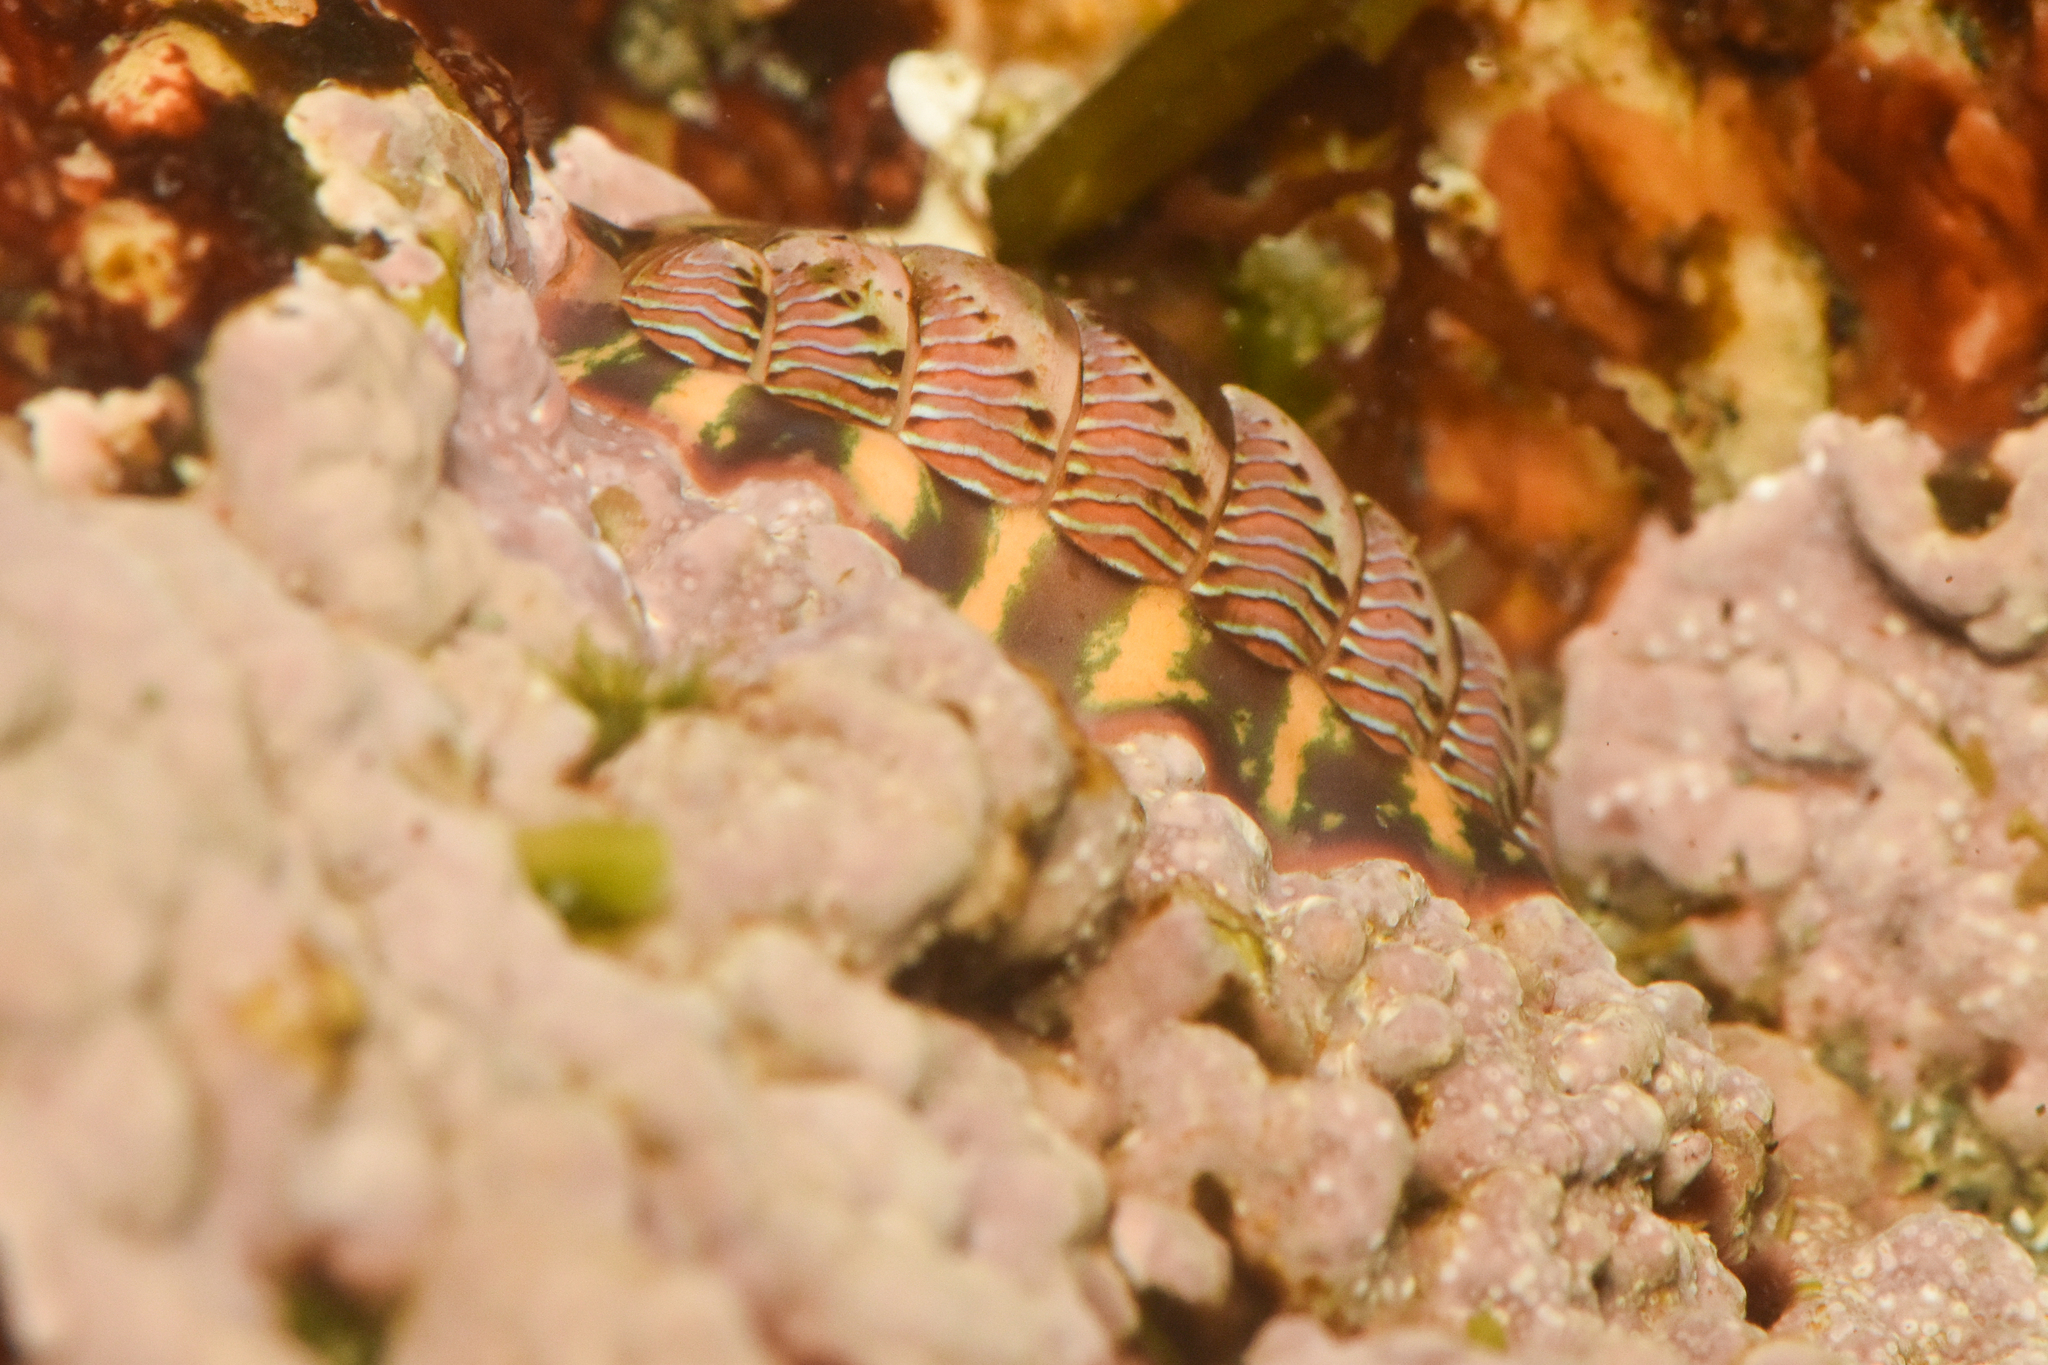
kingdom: Animalia
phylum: Mollusca
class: Polyplacophora
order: Chitonida
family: Tonicellidae
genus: Tonicella
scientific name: Tonicella lineata
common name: Lined chiton
